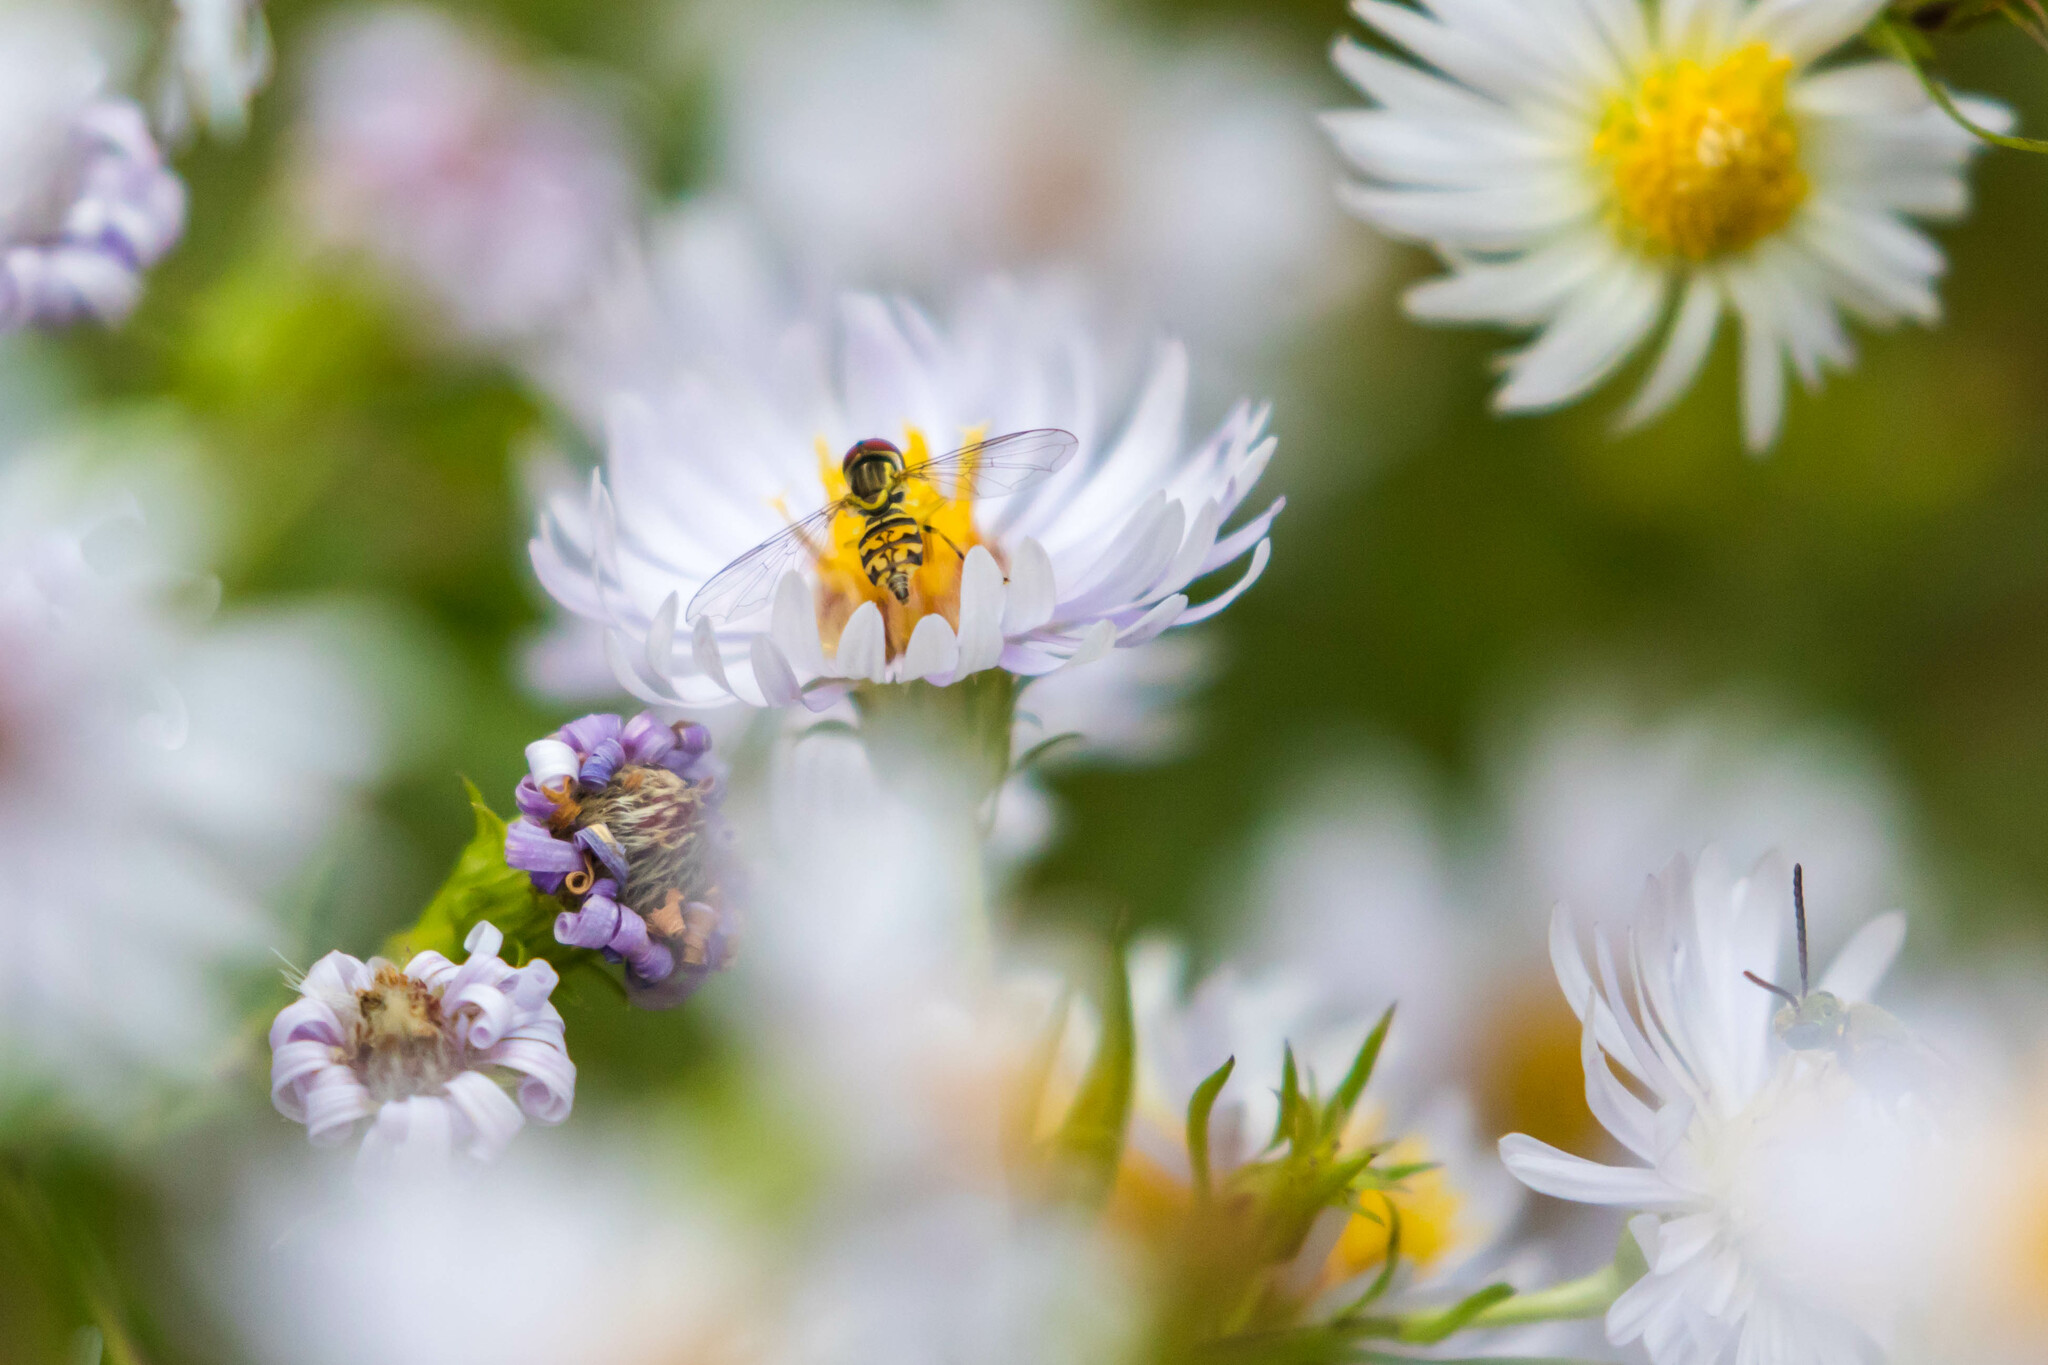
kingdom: Animalia
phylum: Arthropoda
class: Insecta
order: Diptera
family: Syrphidae
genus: Toxomerus
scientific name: Toxomerus geminatus
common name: Eastern calligrapher
